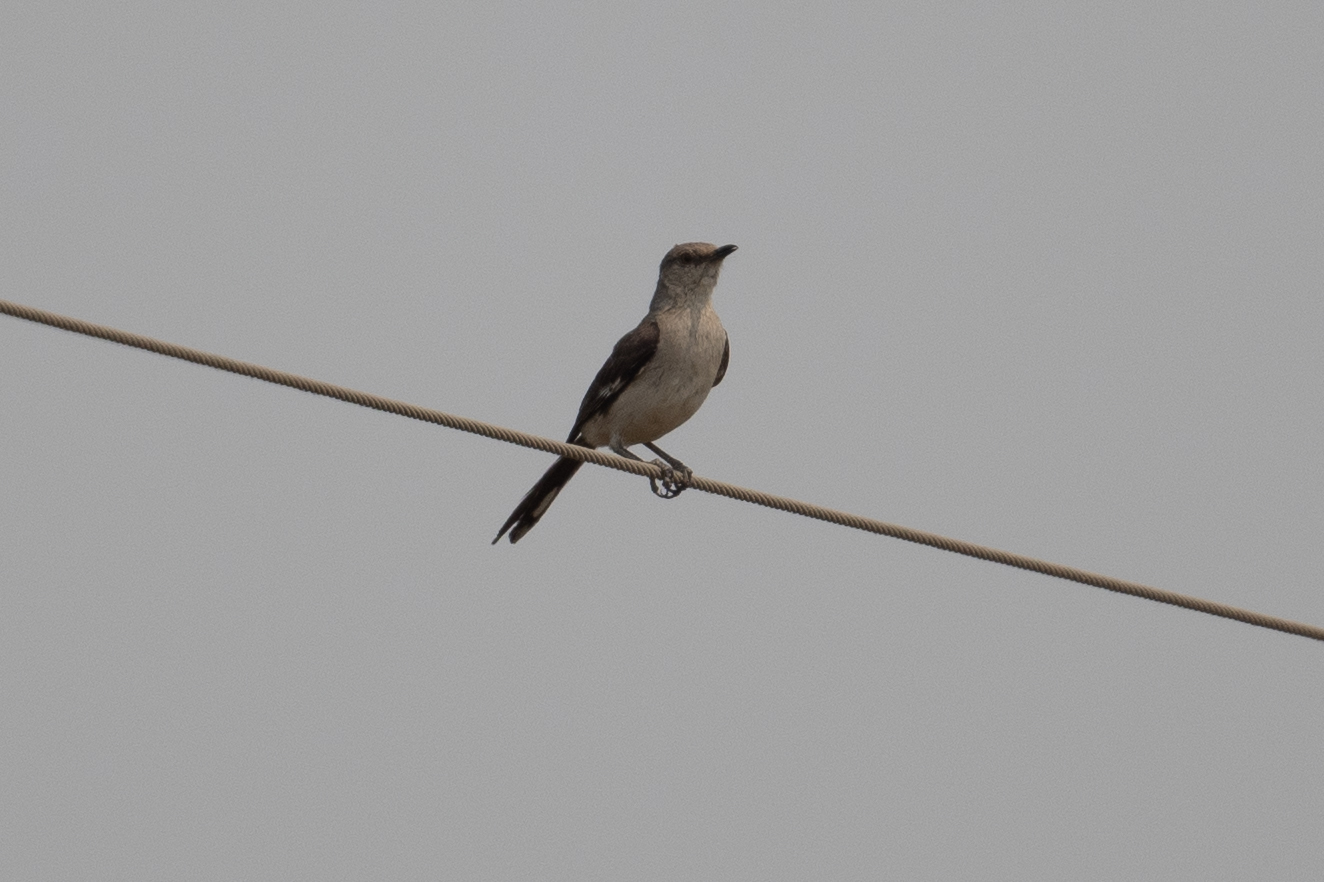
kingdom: Animalia
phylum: Chordata
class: Aves
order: Passeriformes
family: Mimidae
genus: Mimus
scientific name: Mimus polyglottos
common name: Northern mockingbird
